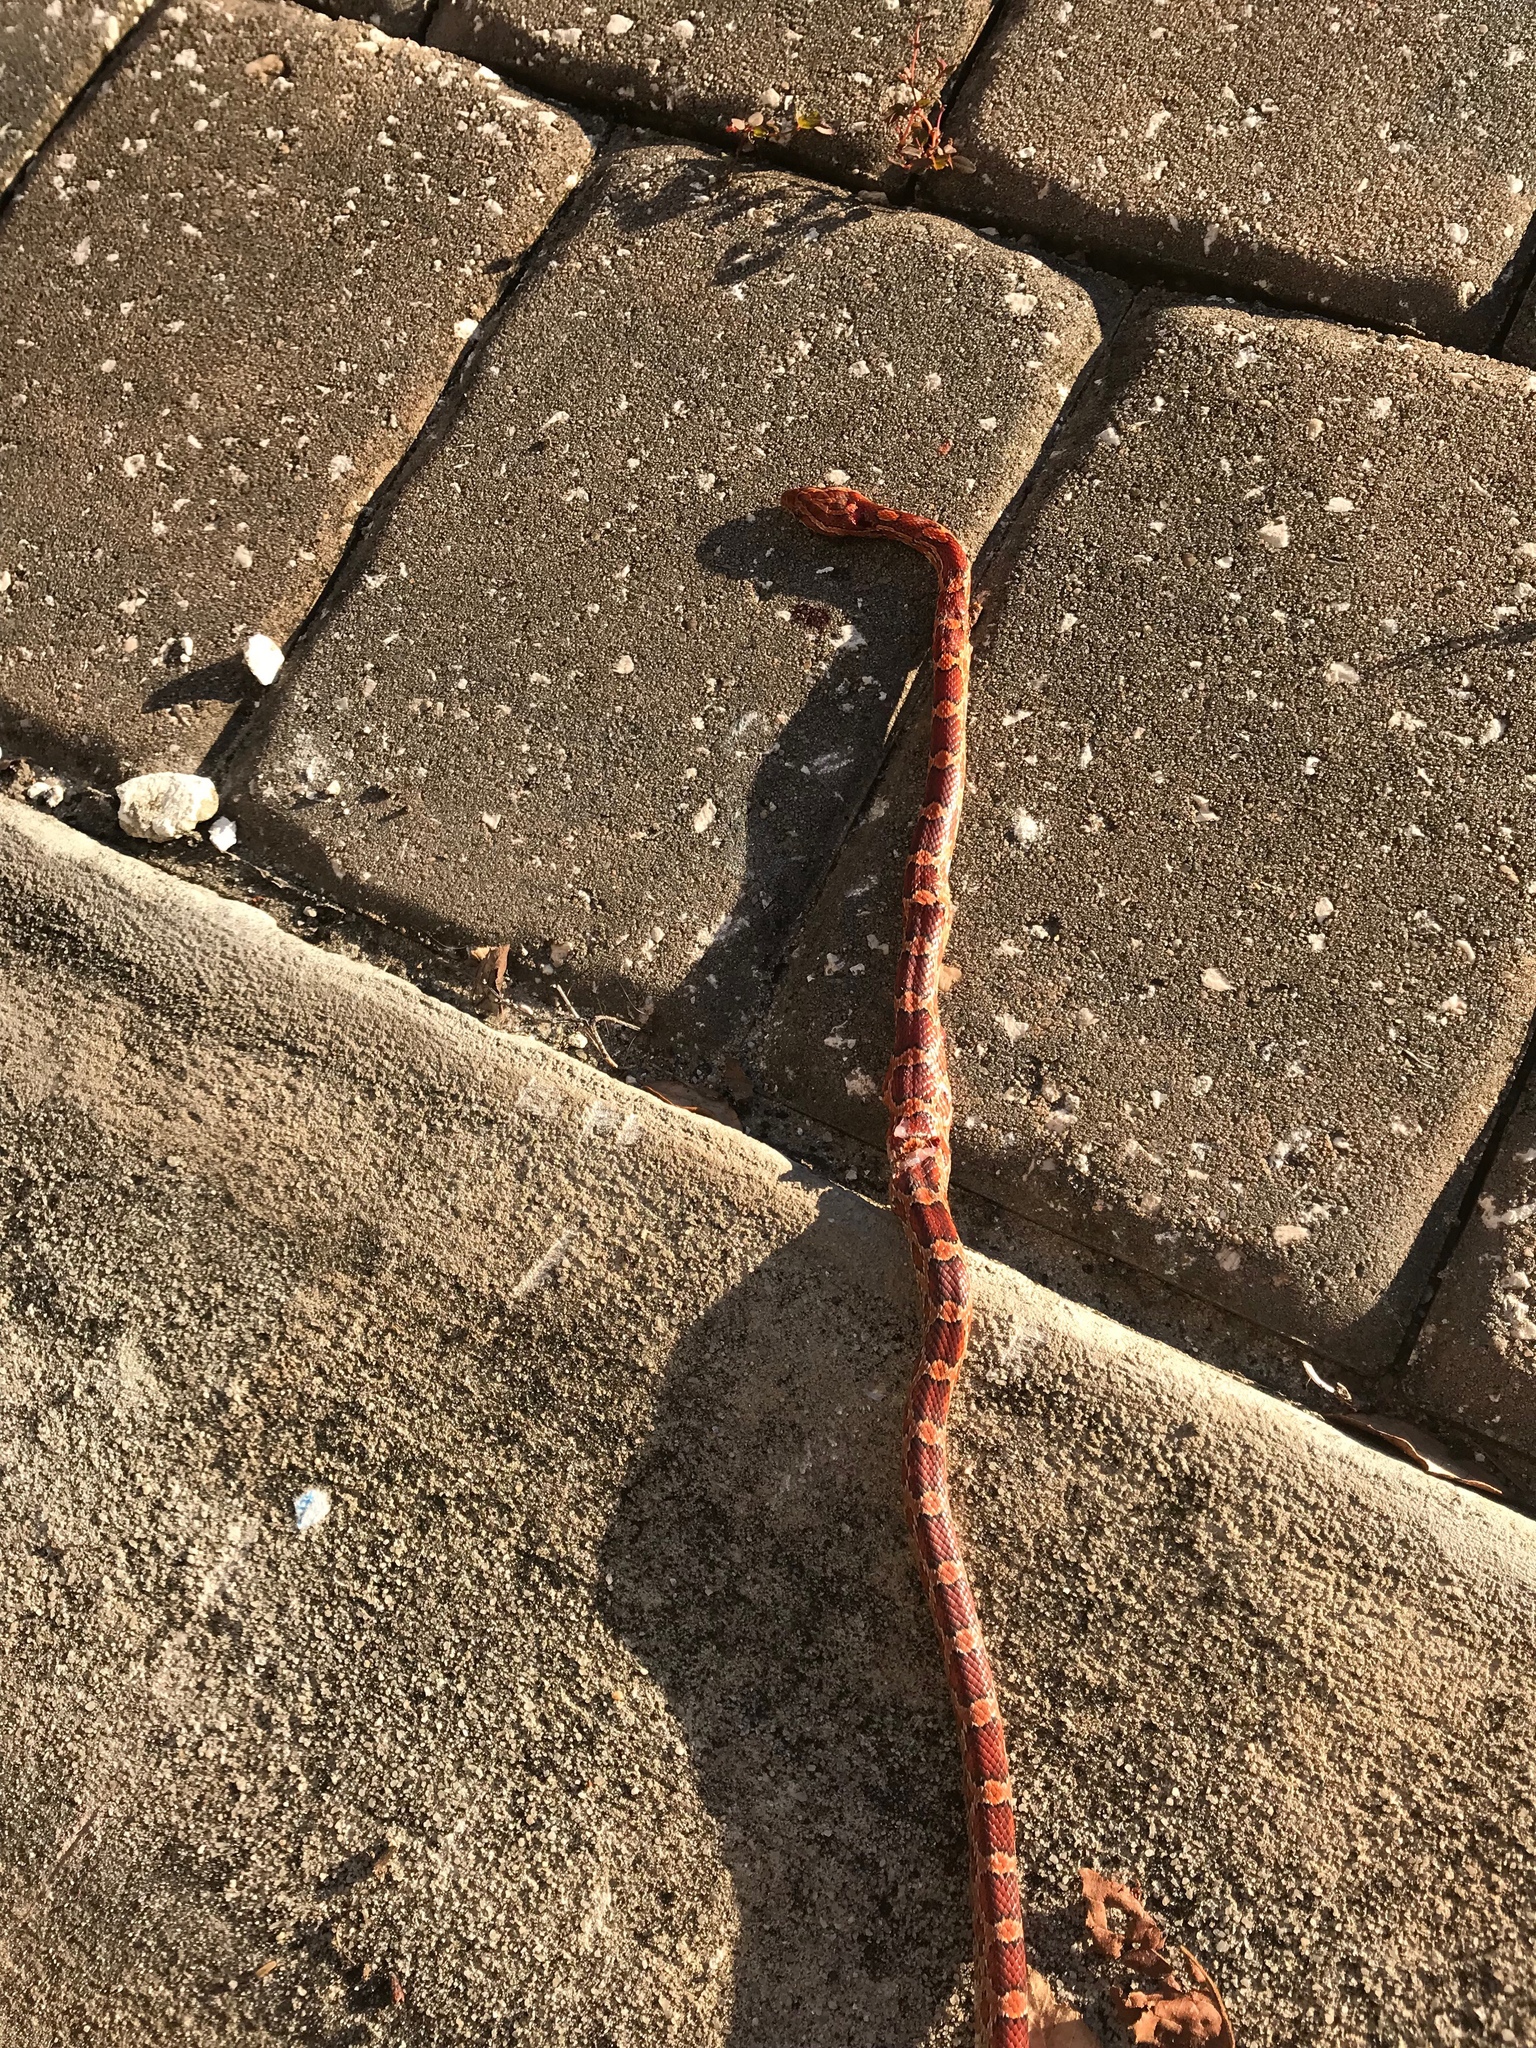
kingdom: Animalia
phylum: Chordata
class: Squamata
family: Colubridae
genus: Pantherophis
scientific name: Pantherophis guttatus
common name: Red cornsnake
